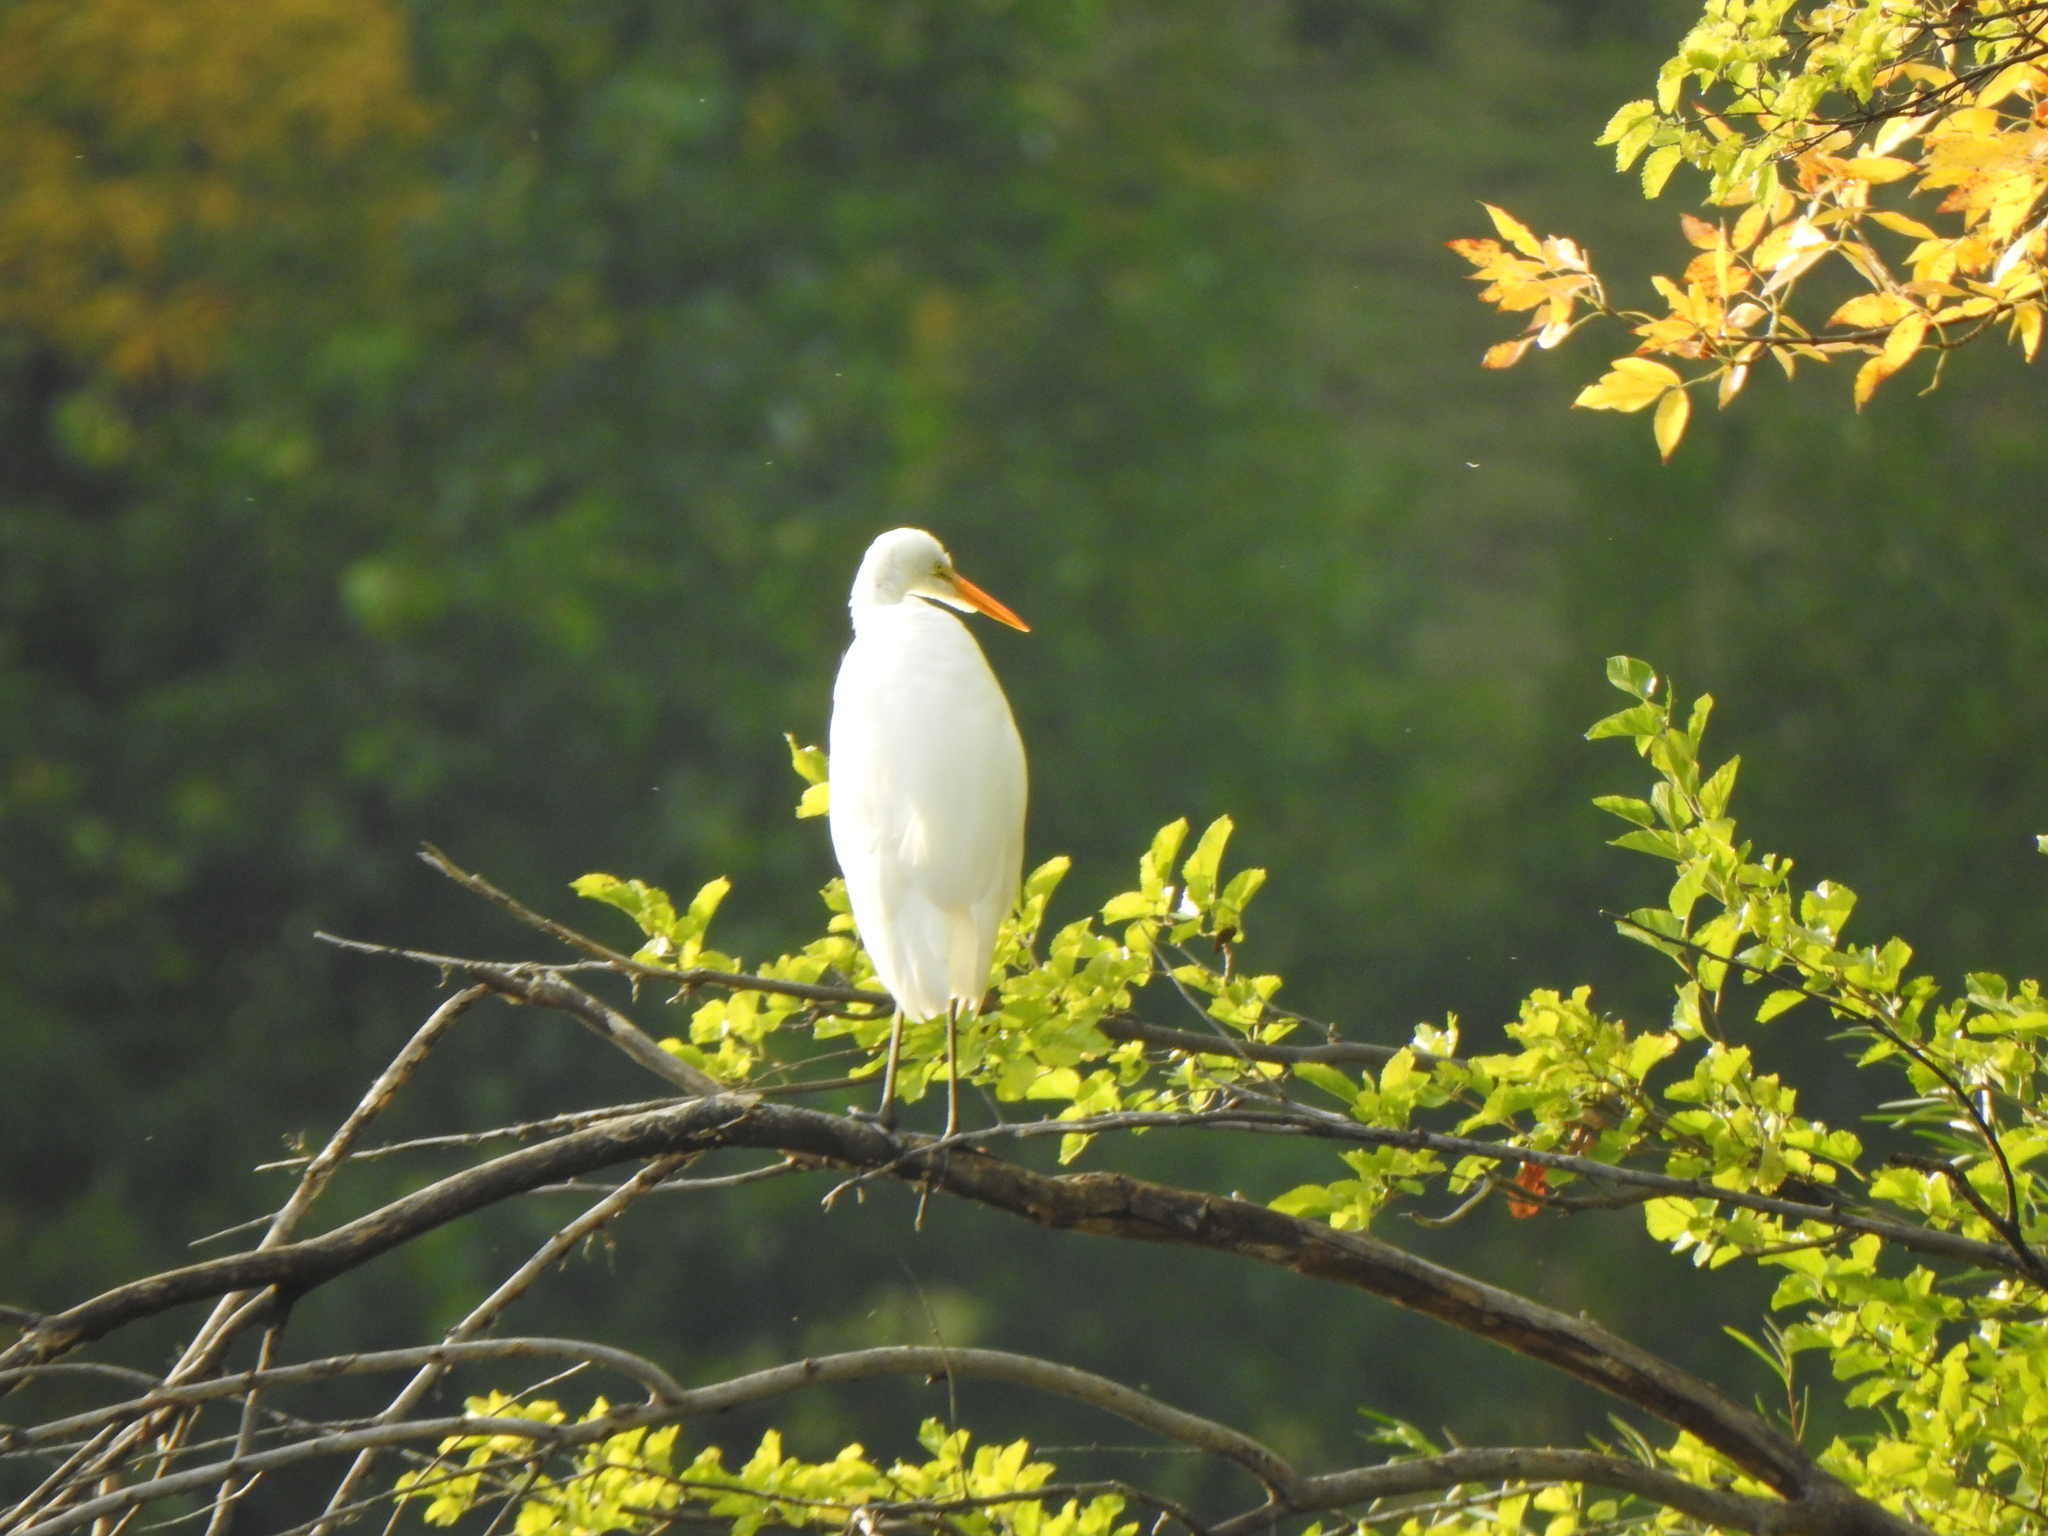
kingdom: Animalia
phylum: Chordata
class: Aves
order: Pelecaniformes
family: Ardeidae
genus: Ardea
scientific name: Ardea alba
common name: Great egret
